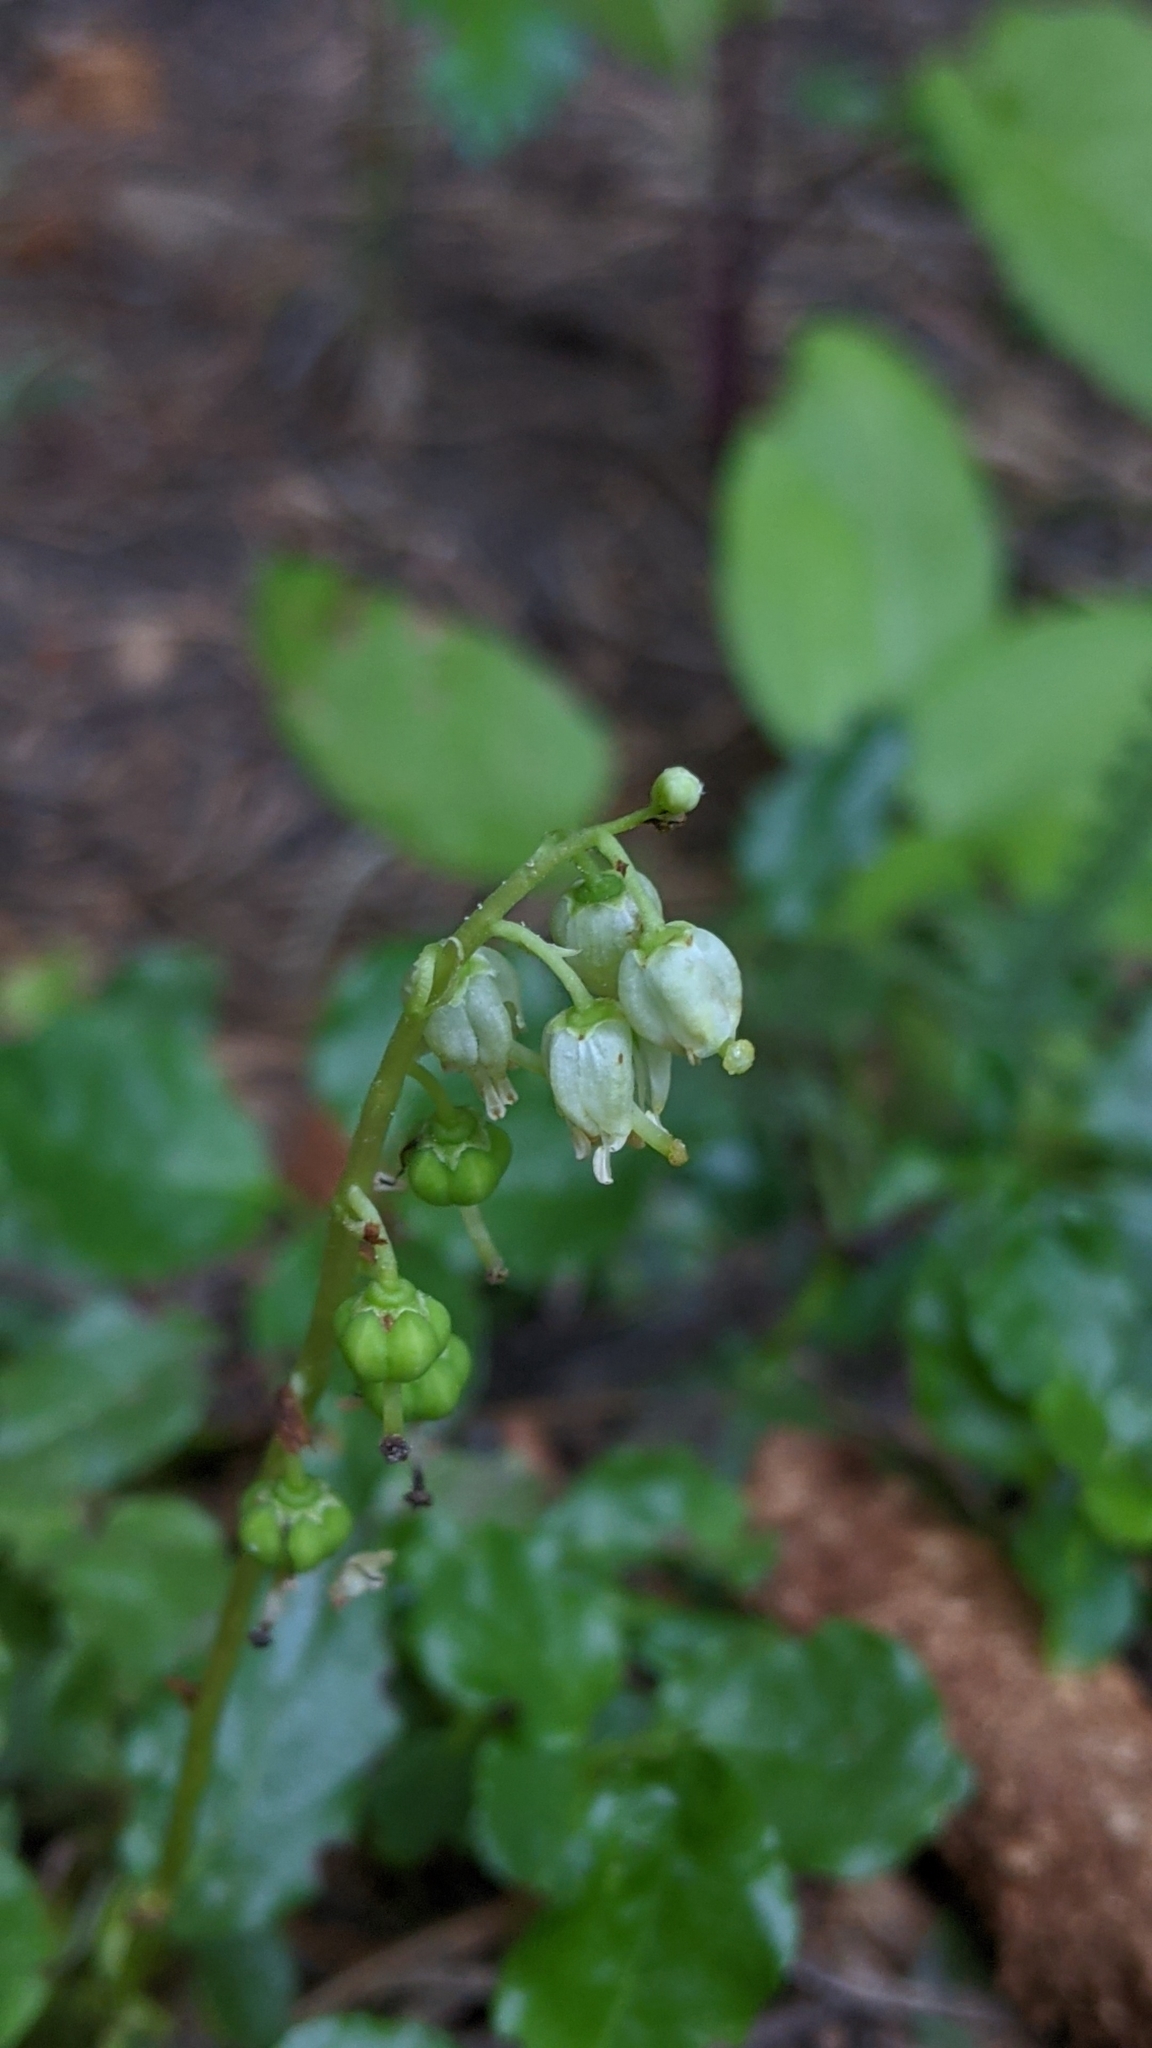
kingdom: Plantae
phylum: Tracheophyta
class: Magnoliopsida
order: Ericales
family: Ericaceae
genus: Orthilia
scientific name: Orthilia secunda
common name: One-sided orthilia
